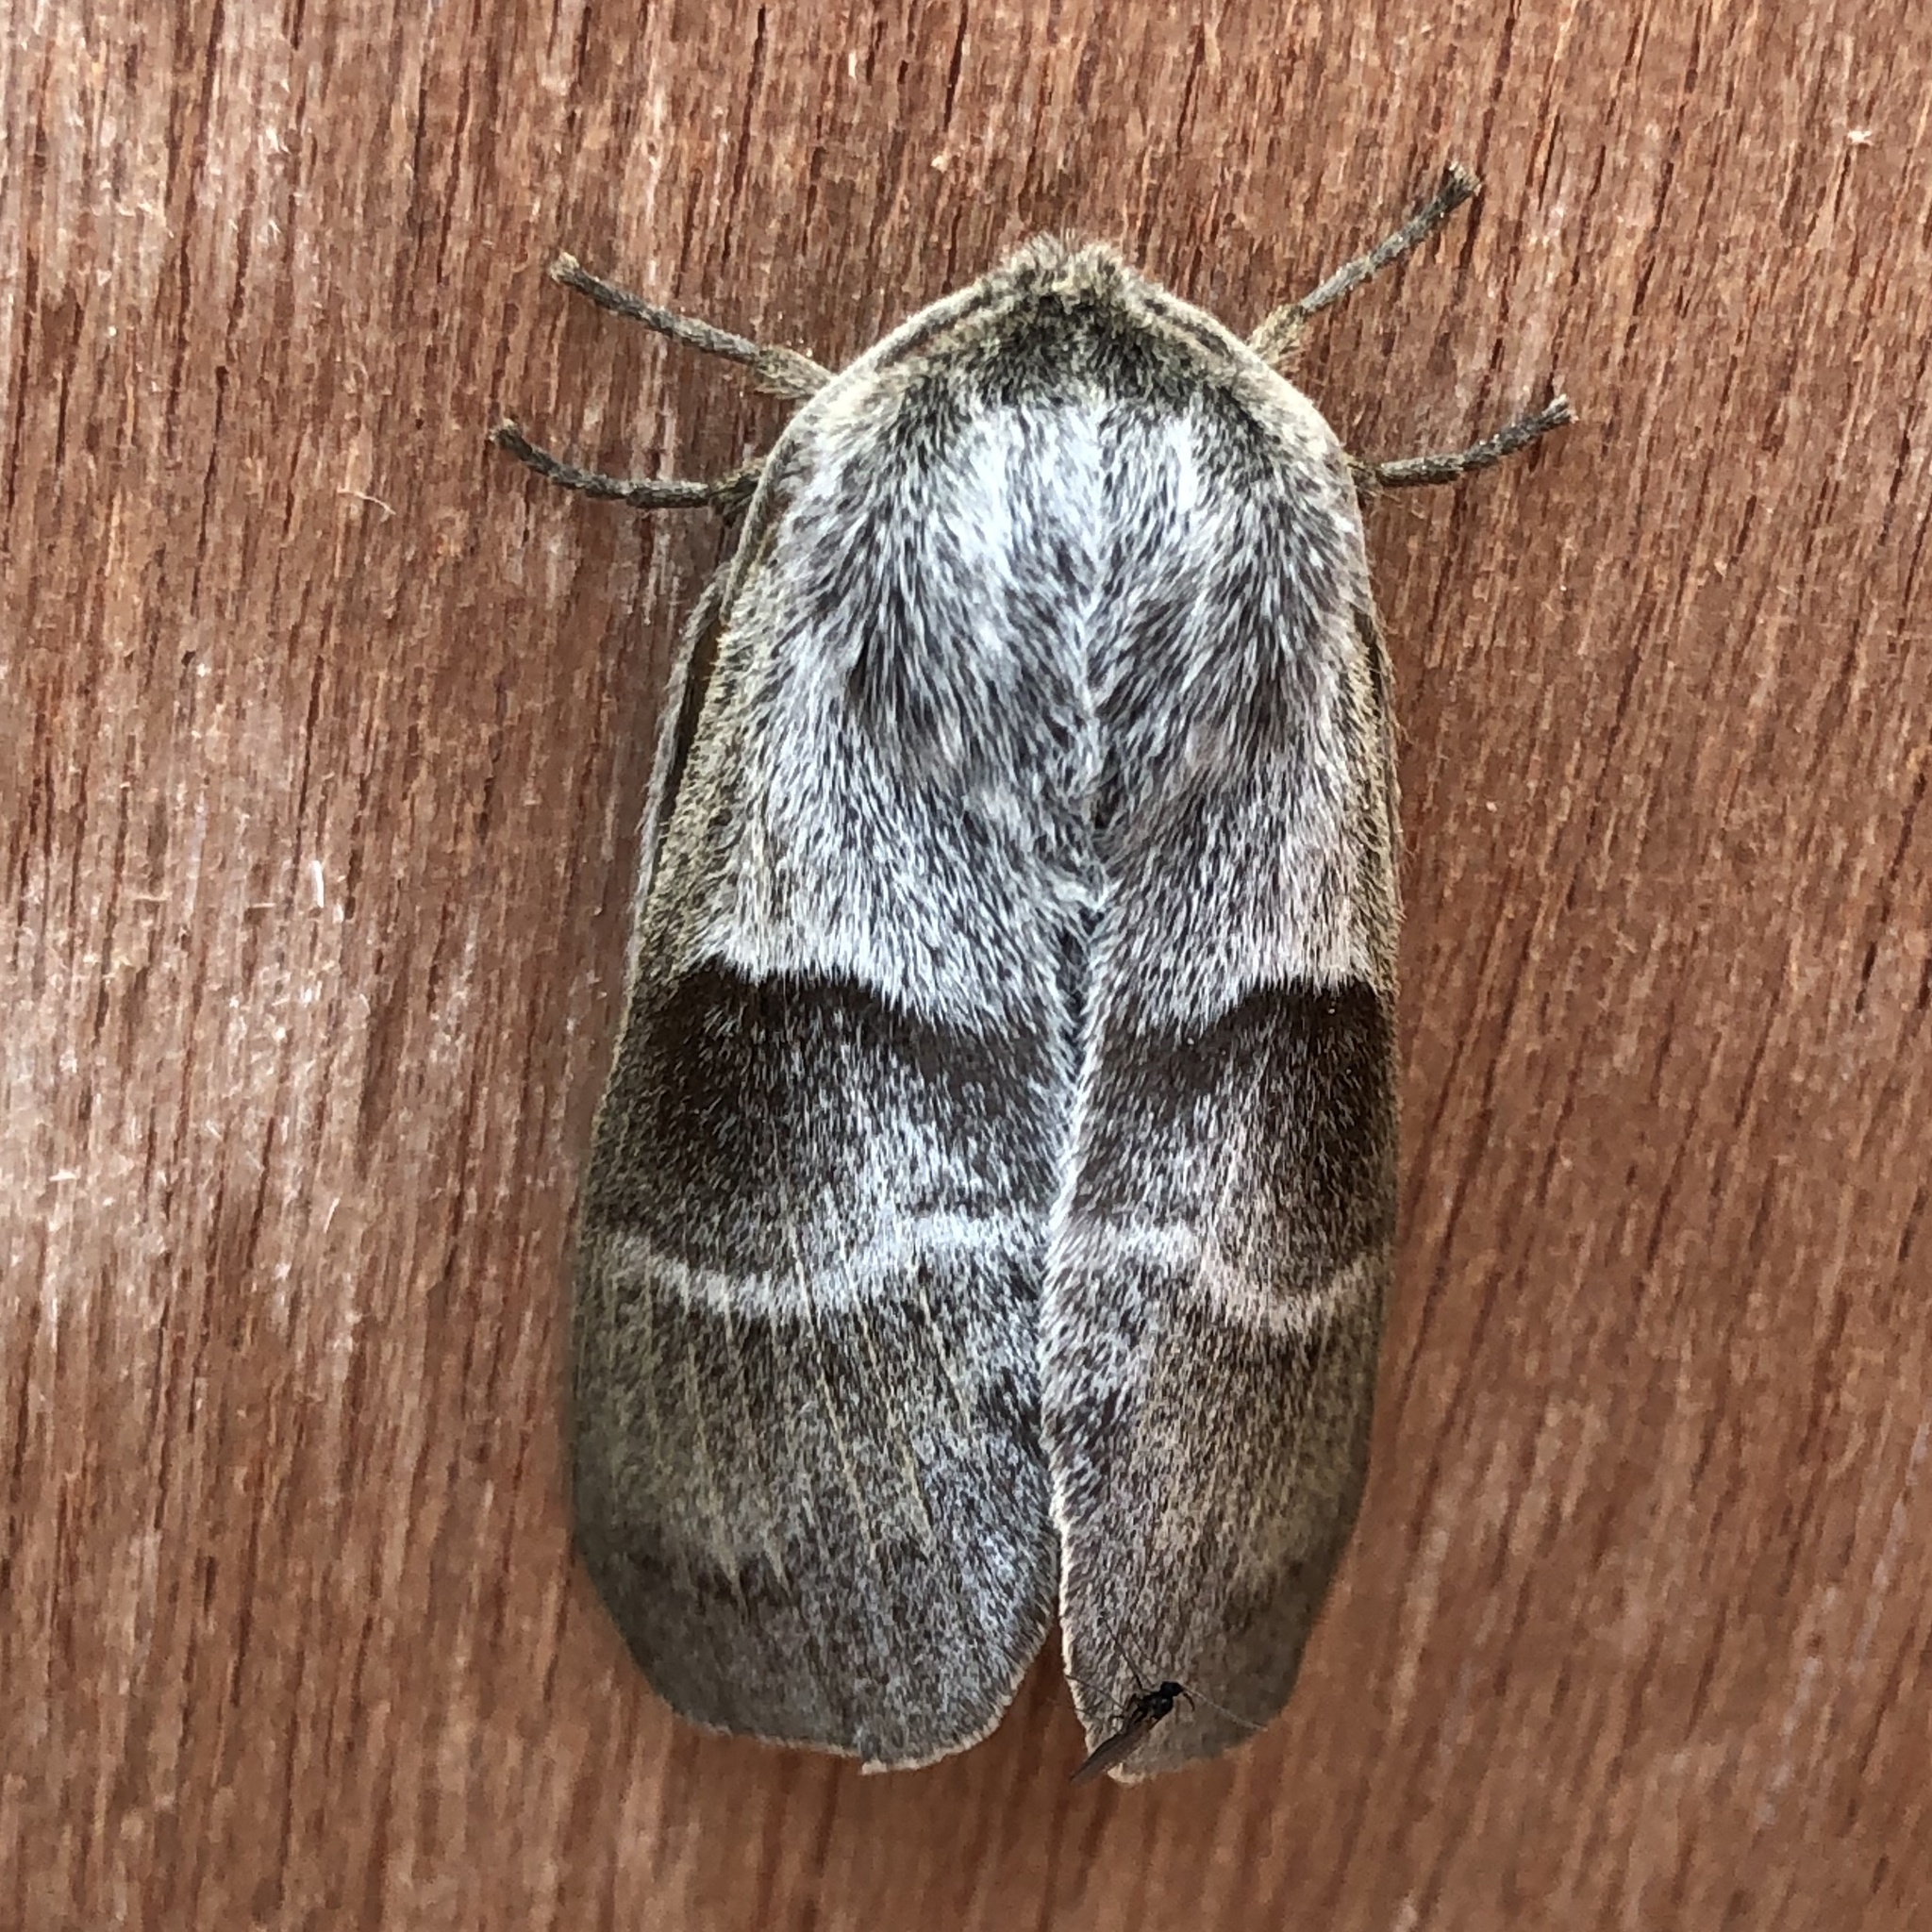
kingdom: Animalia
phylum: Arthropoda
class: Insecta
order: Lepidoptera
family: Lasiocampidae
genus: Macrothylacia
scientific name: Macrothylacia rubi
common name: Fox moth
